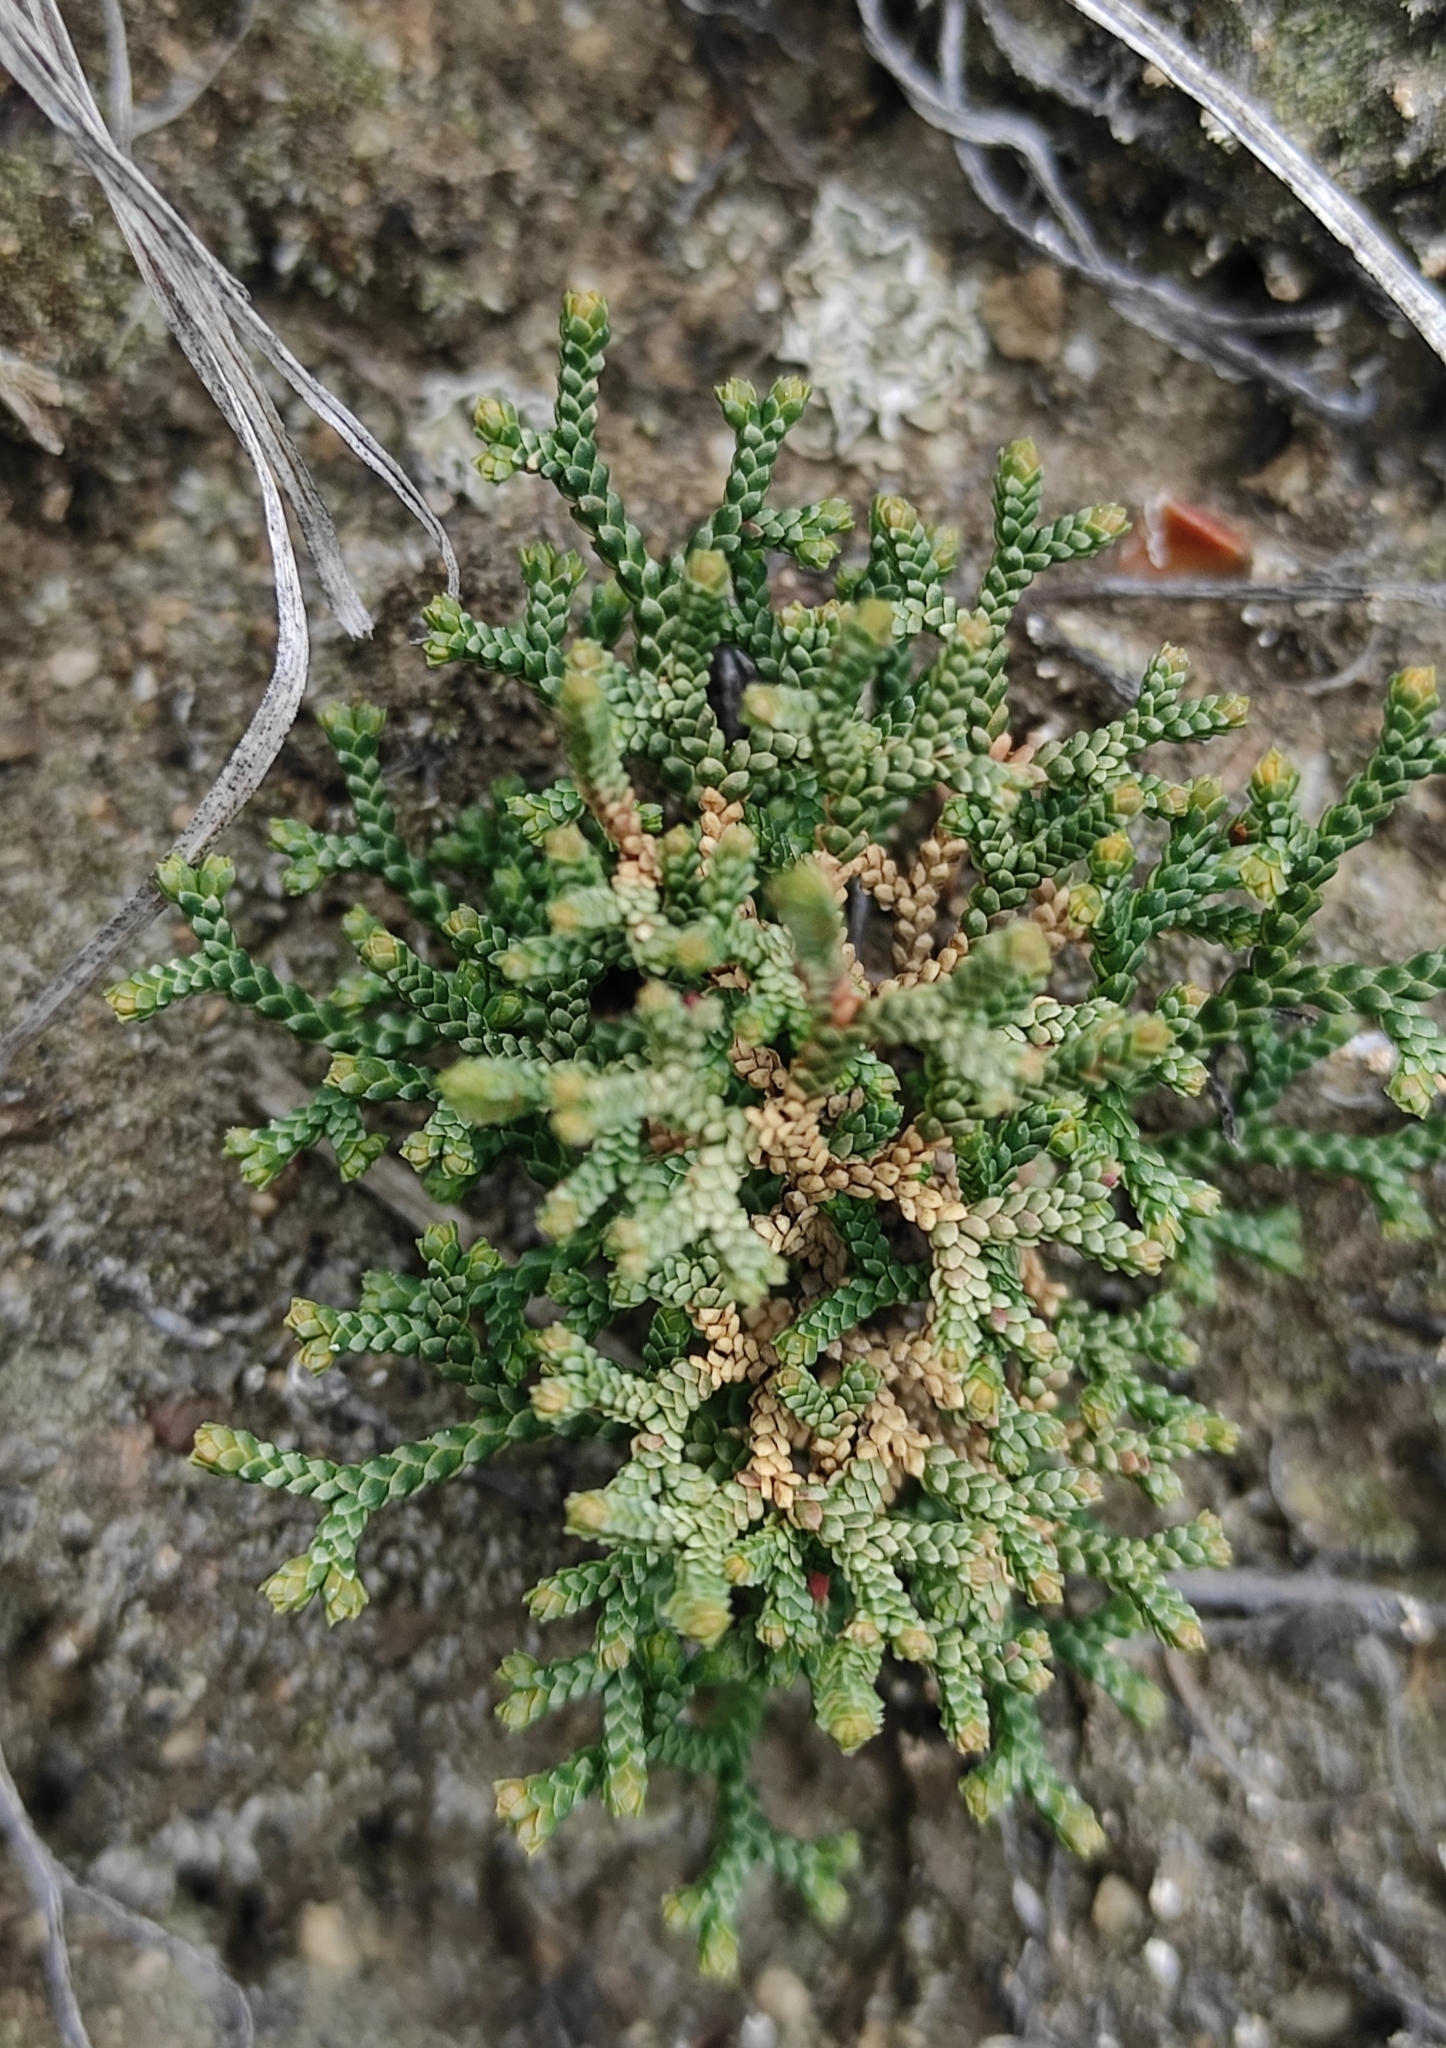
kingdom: Plantae
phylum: Tracheophyta
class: Lycopodiopsida
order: Selaginellales
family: Selaginellaceae
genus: Selaginella
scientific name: Selaginella sanguinolenta
